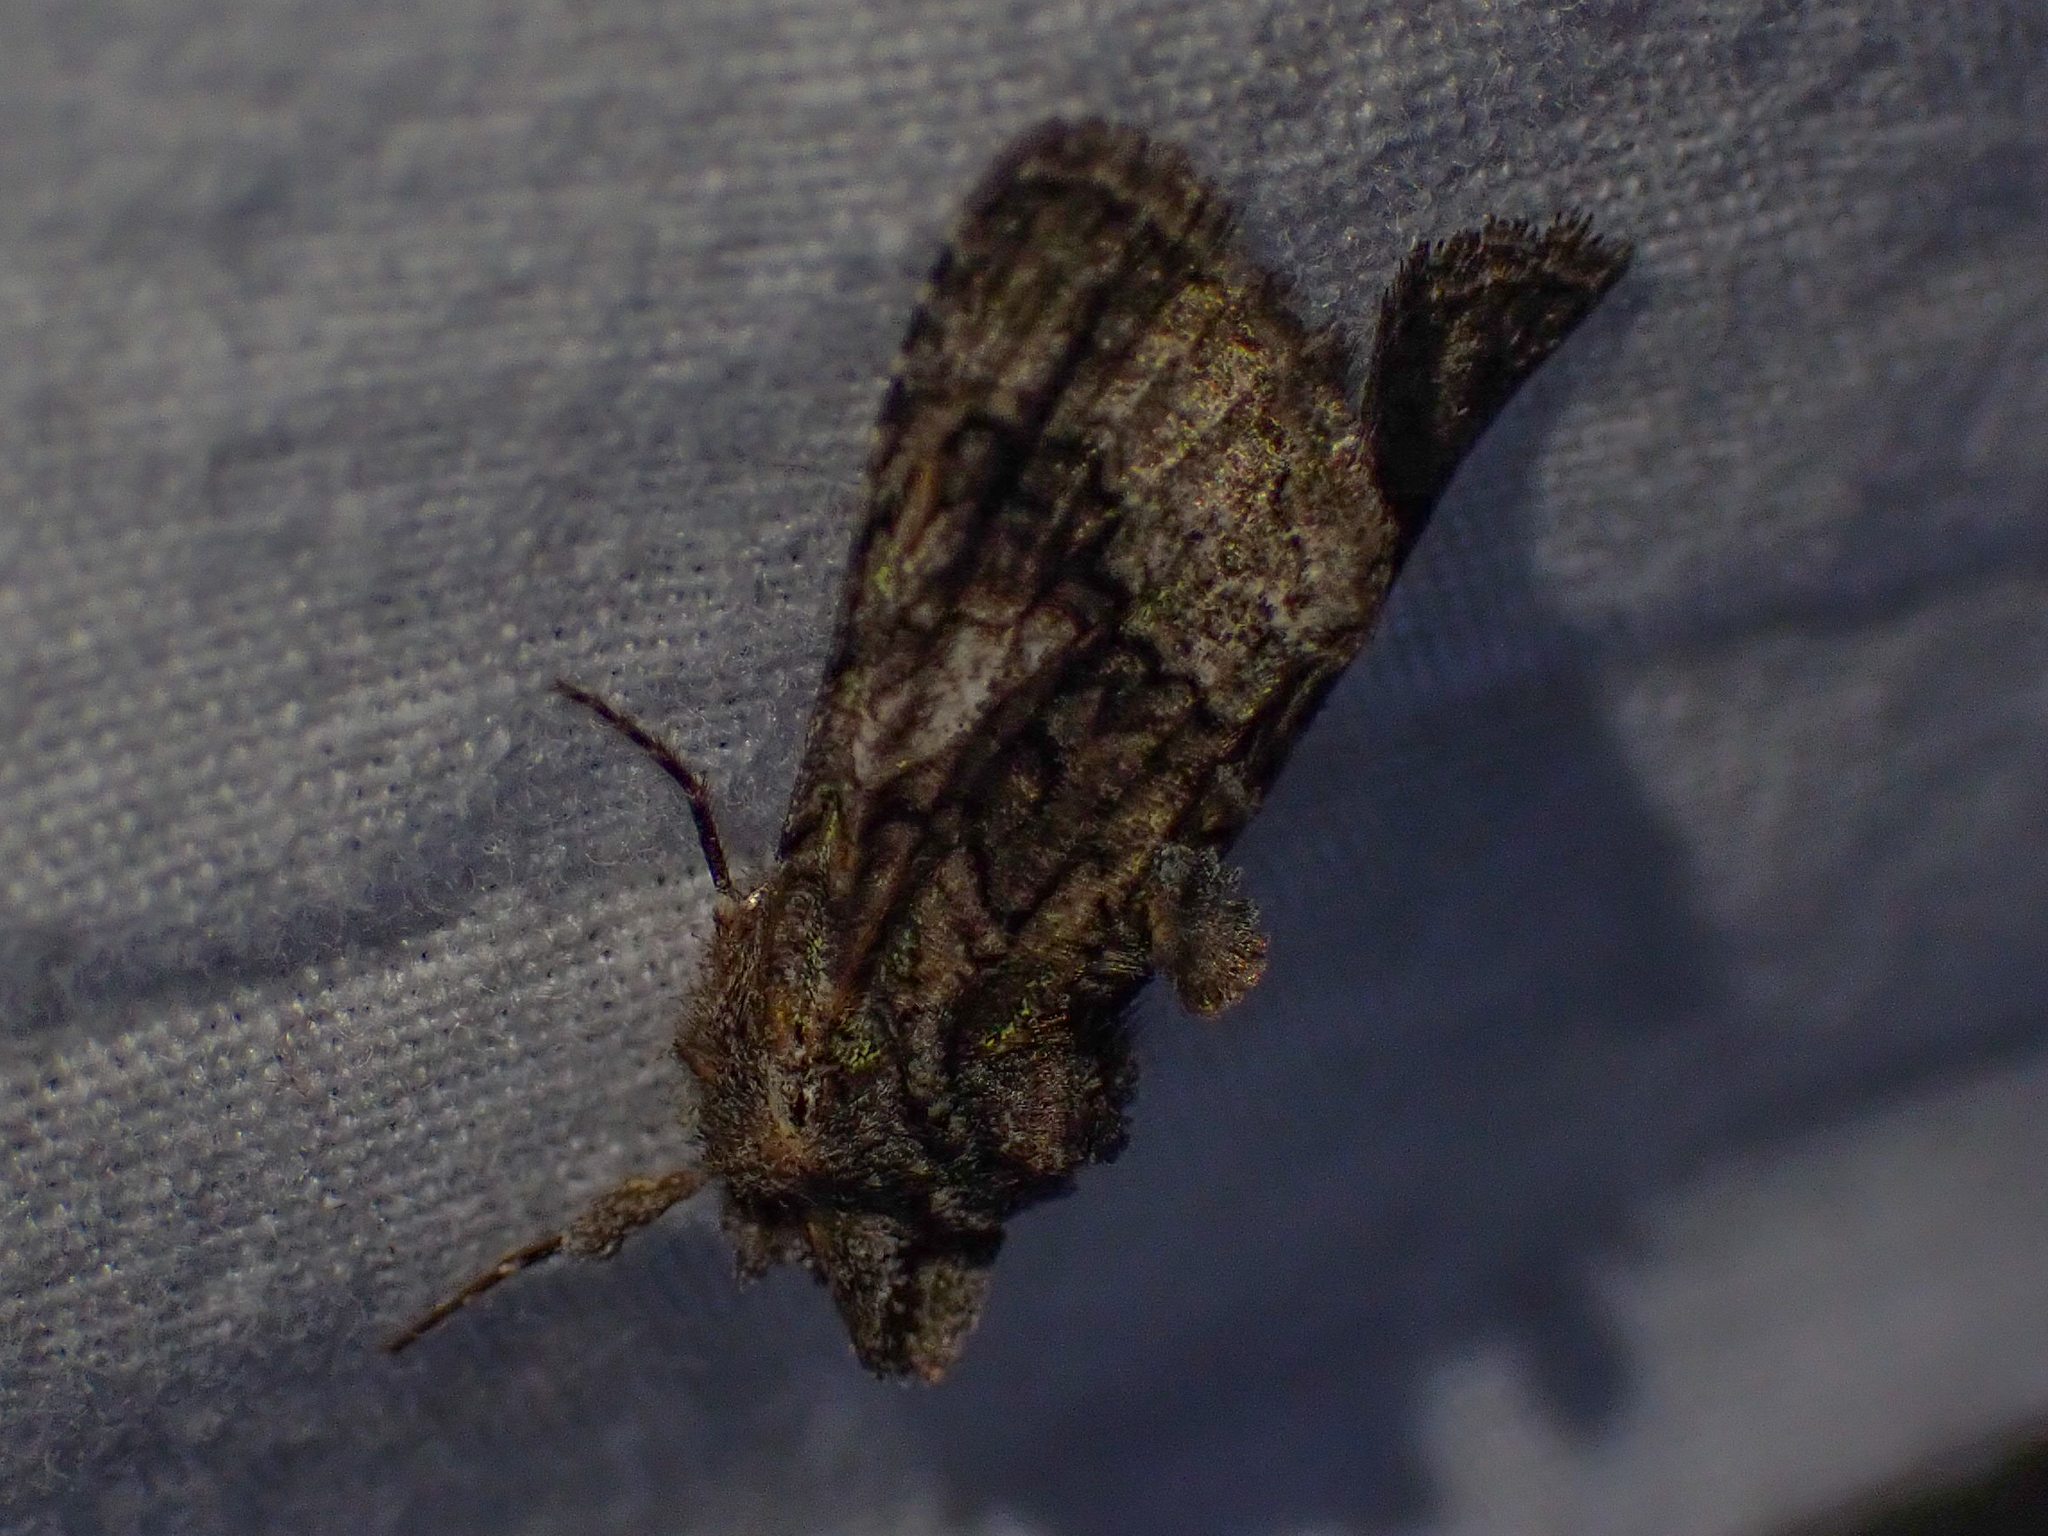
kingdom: Animalia
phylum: Arthropoda
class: Insecta
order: Lepidoptera
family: Noctuidae
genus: Behrensia
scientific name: Behrensia conchiformis
